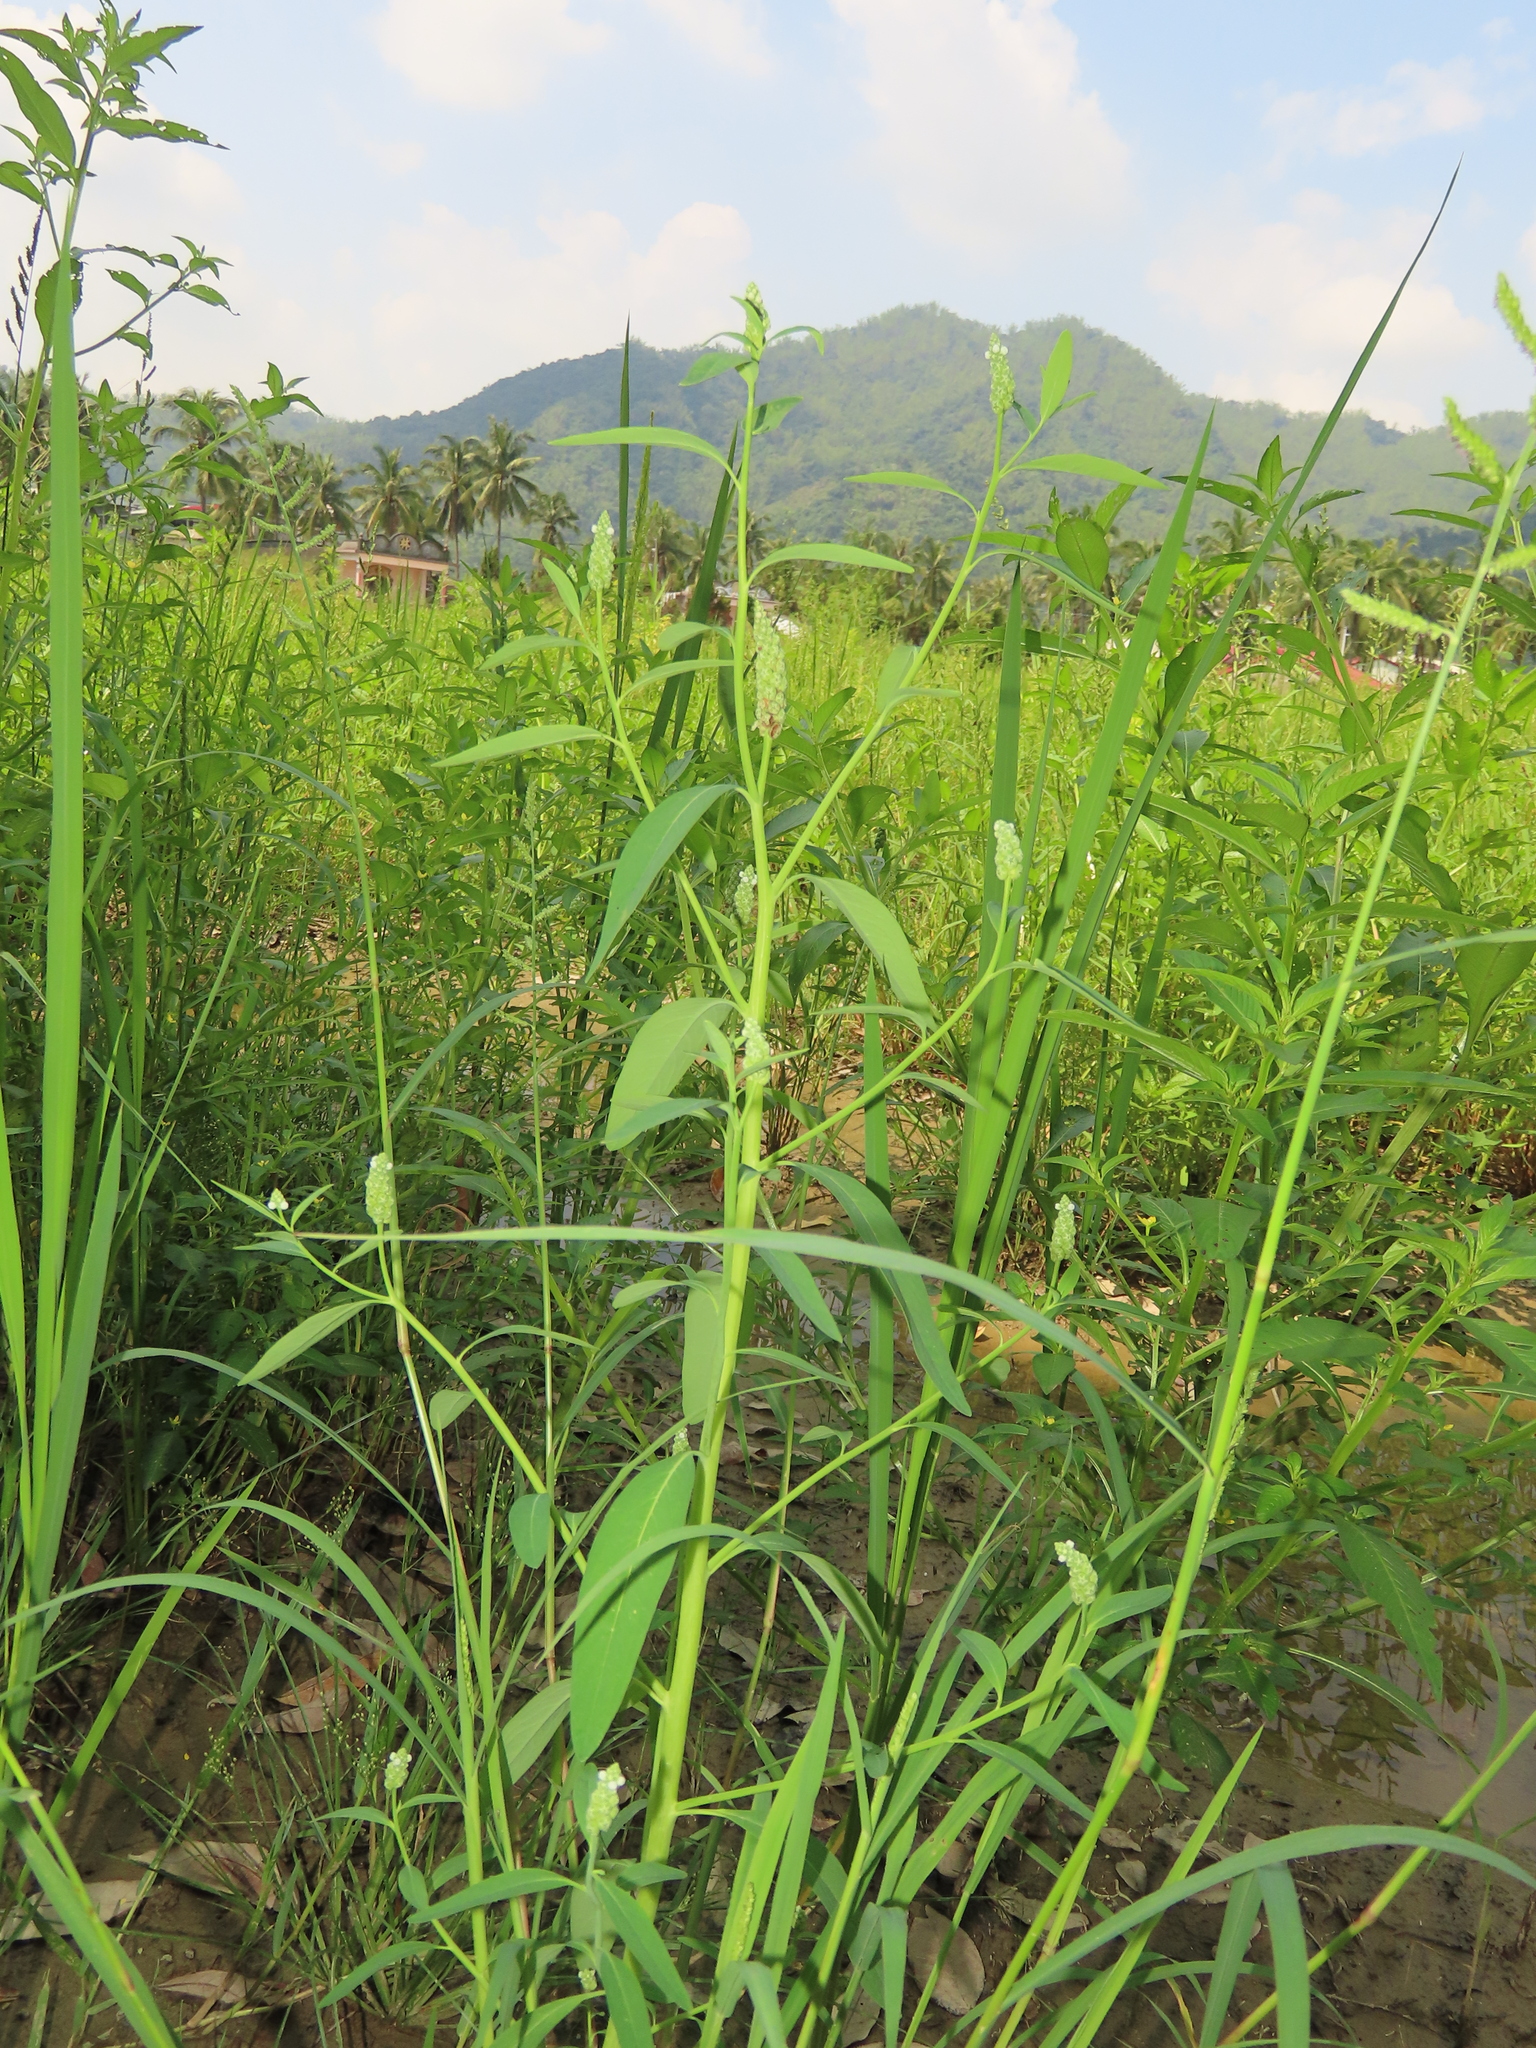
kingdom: Plantae
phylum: Tracheophyta
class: Magnoliopsida
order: Solanales
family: Sphenocleaceae
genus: Sphenoclea
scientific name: Sphenoclea zeylanica
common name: Chickenspike
